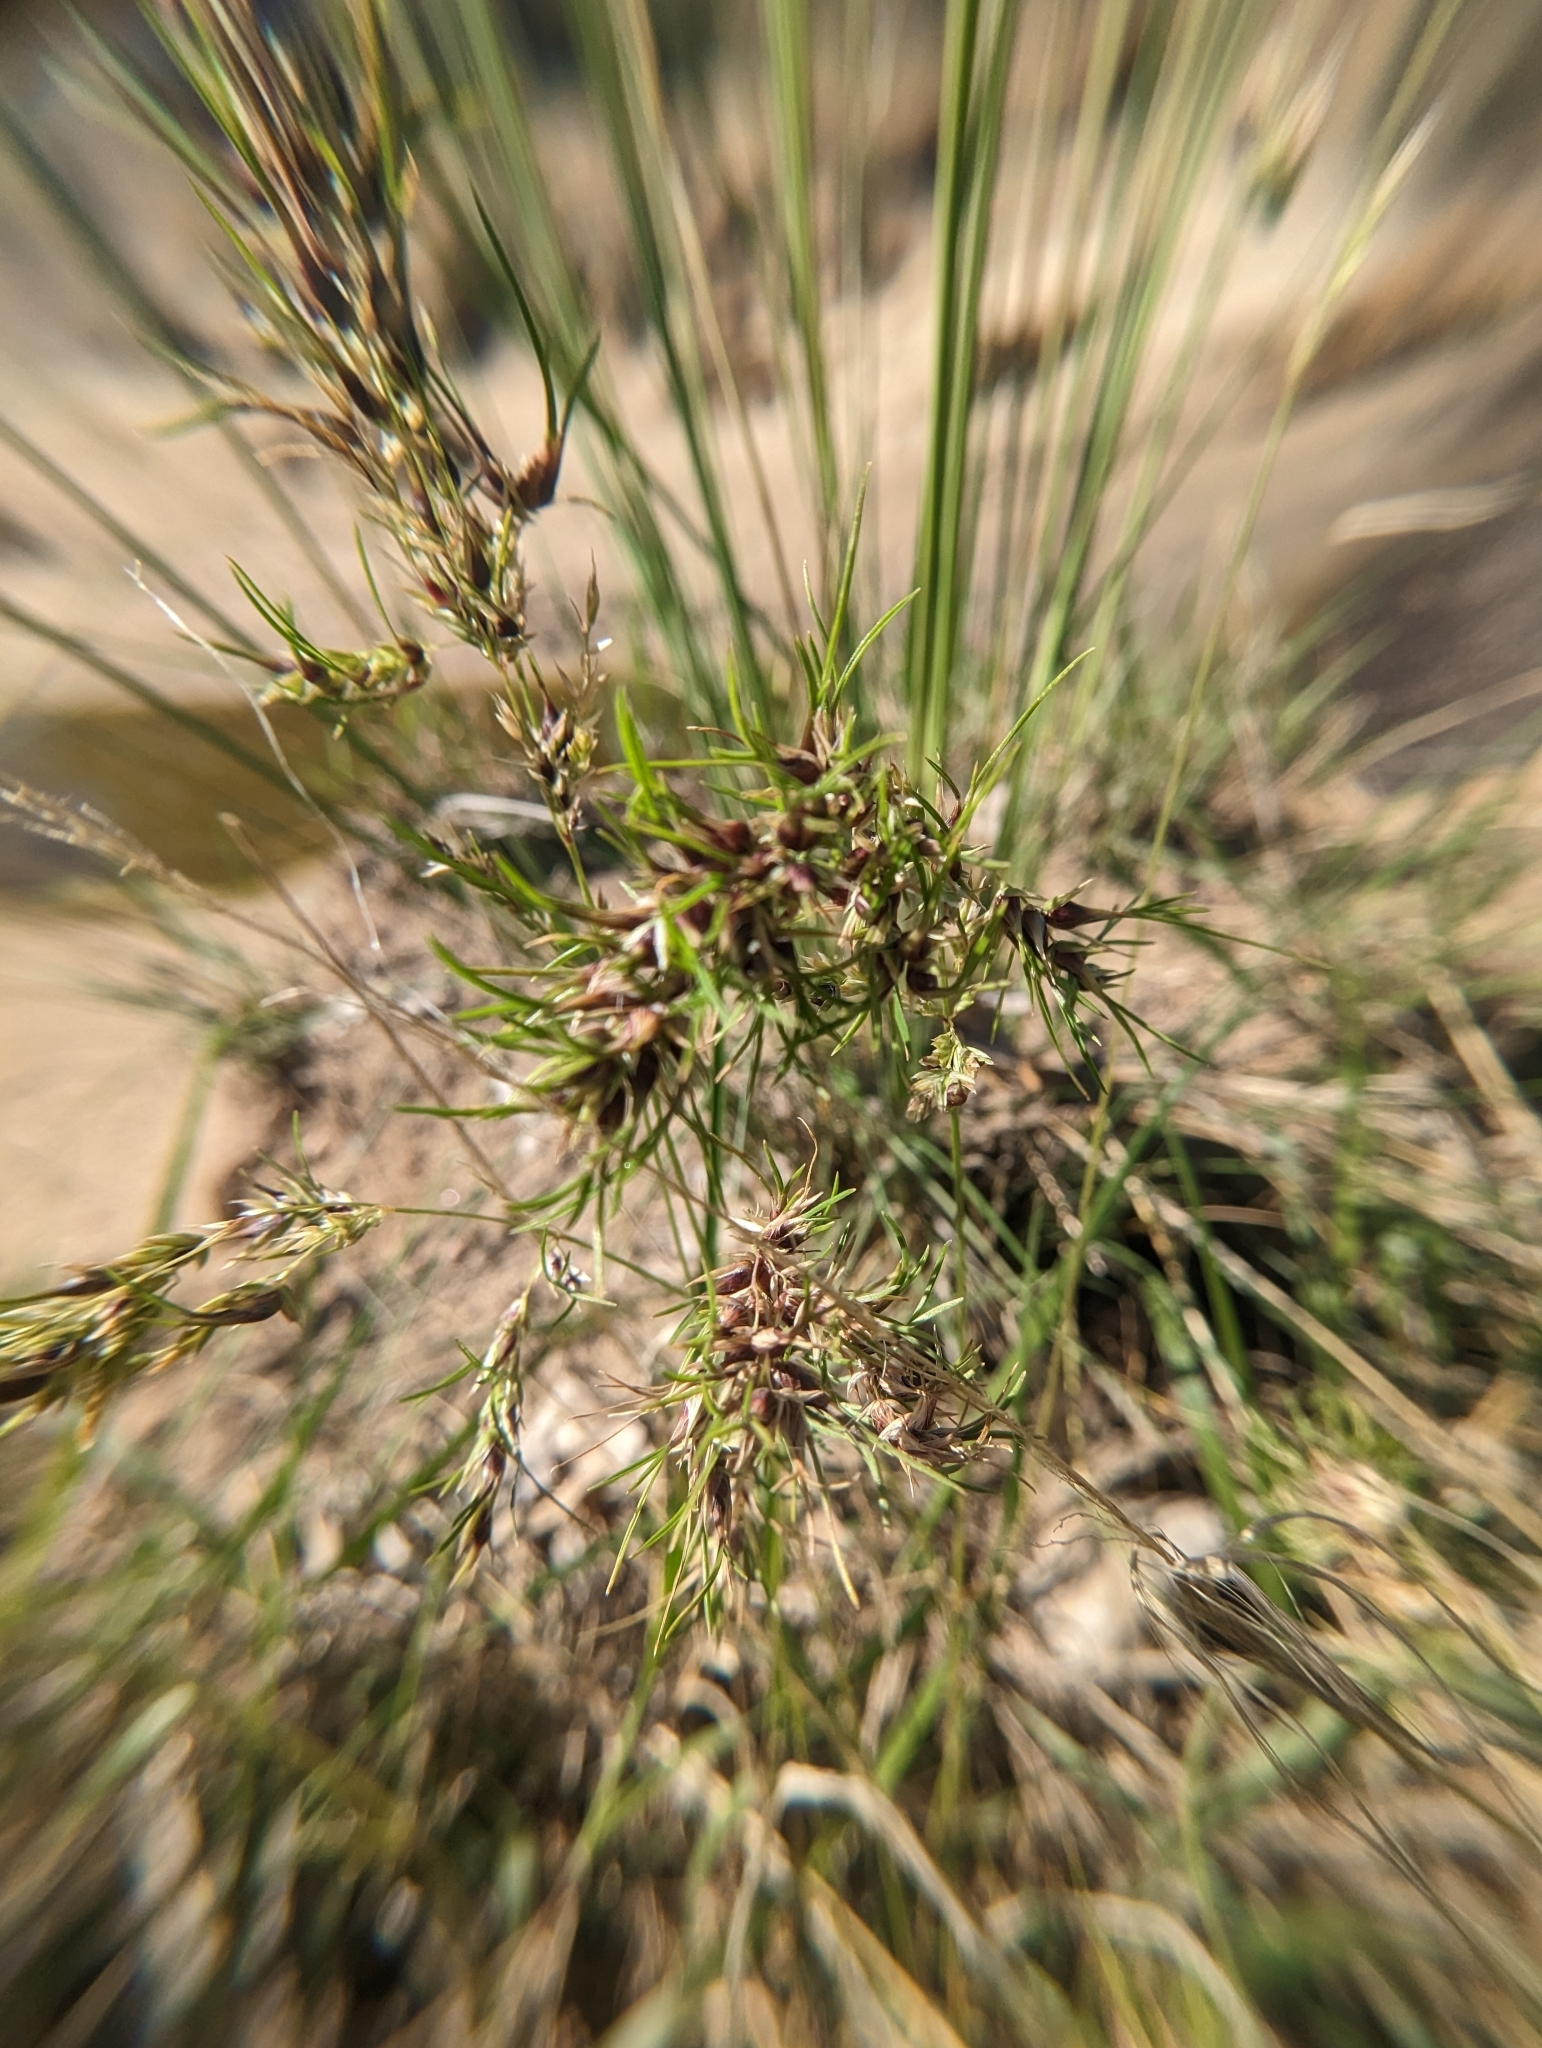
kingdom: Plantae
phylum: Tracheophyta
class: Liliopsida
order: Poales
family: Poaceae
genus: Poa
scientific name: Poa bulbosa
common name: Bulbous bluegrass
